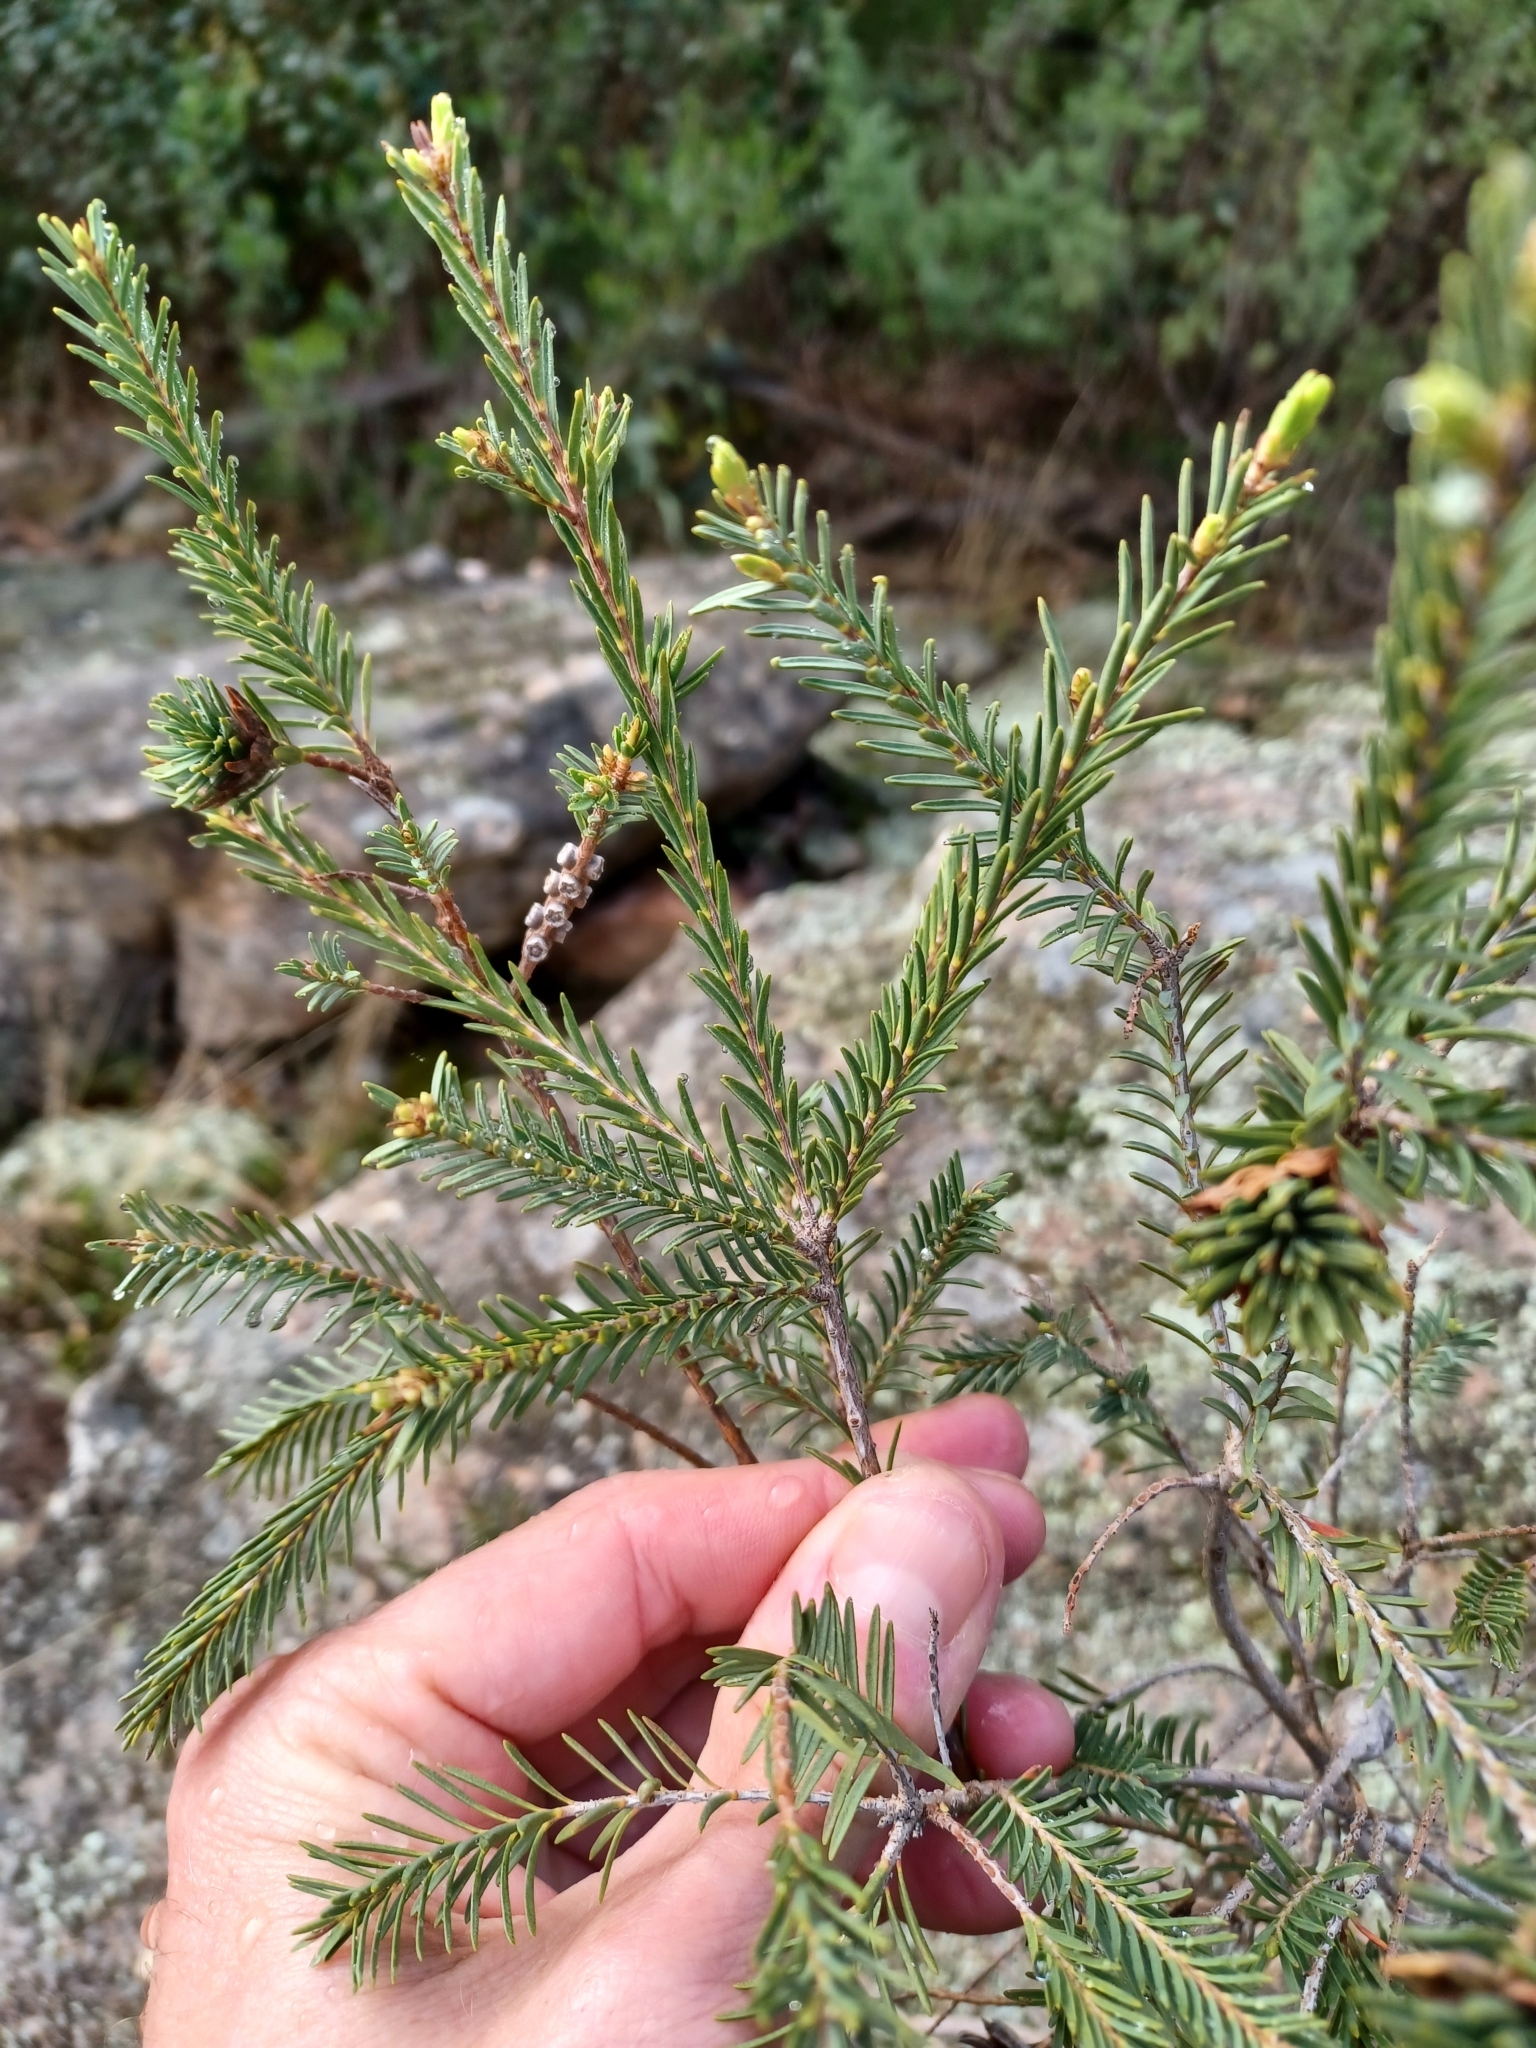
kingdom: Plantae
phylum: Tracheophyta
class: Magnoliopsida
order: Myrtales
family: Myrtaceae
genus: Melaleuca
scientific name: Melaleuca decussata
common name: Cross-leaf honey myrtle
